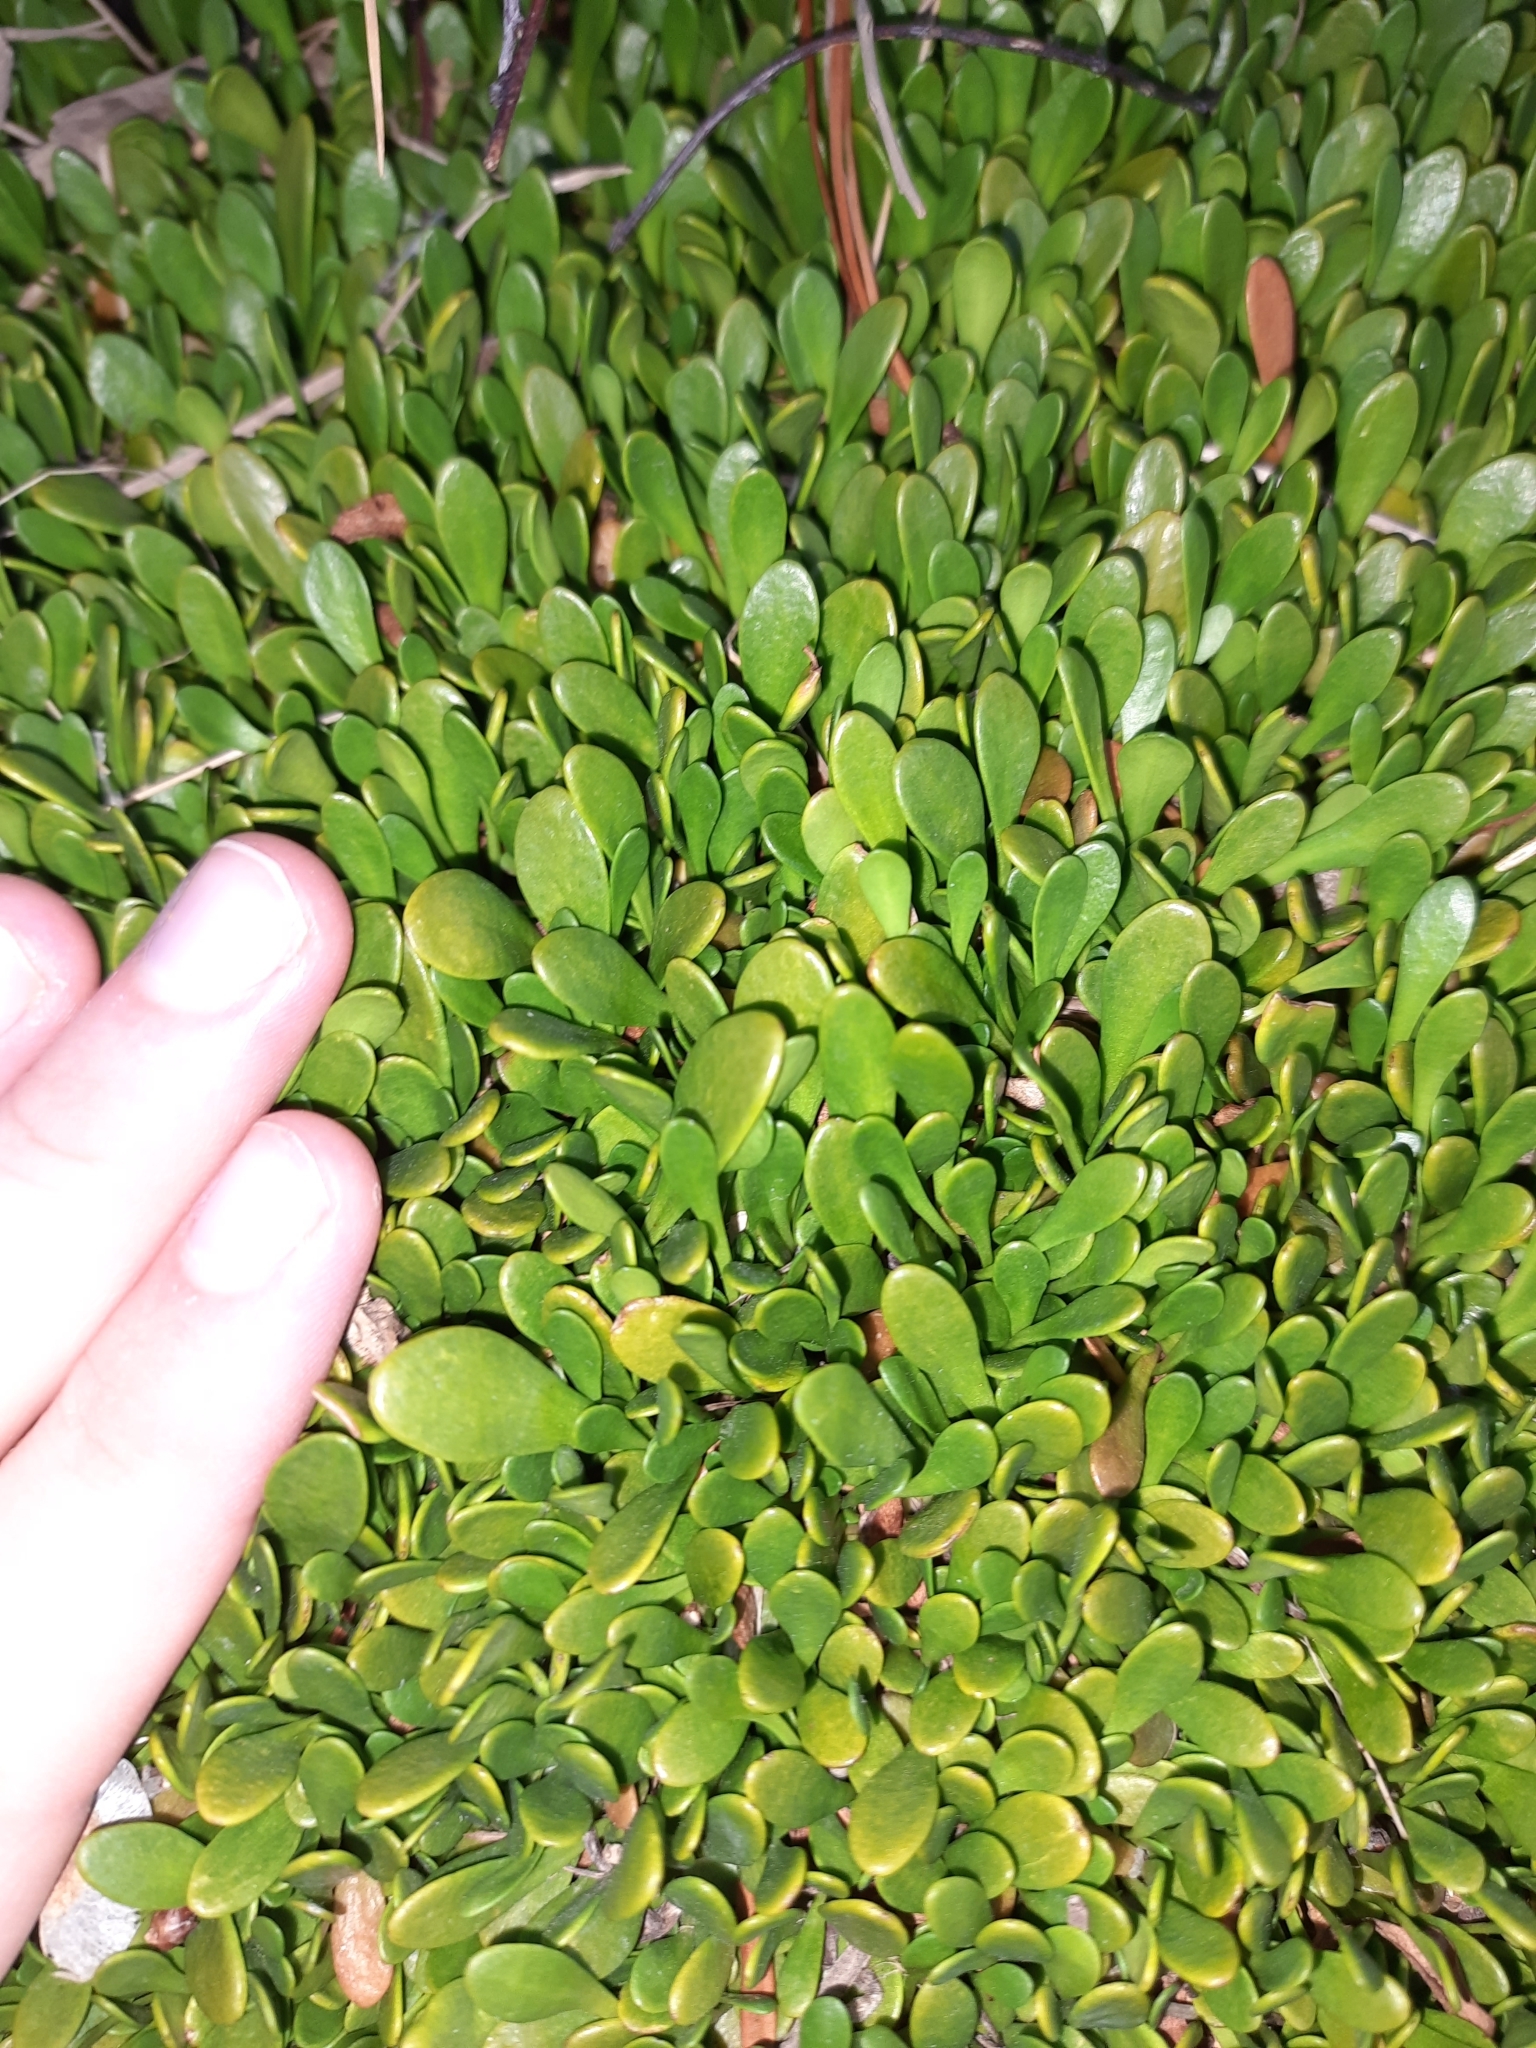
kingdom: Plantae
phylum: Tracheophyta
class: Magnoliopsida
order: Asterales
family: Goodeniaceae
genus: Goodenia
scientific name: Goodenia radicans
